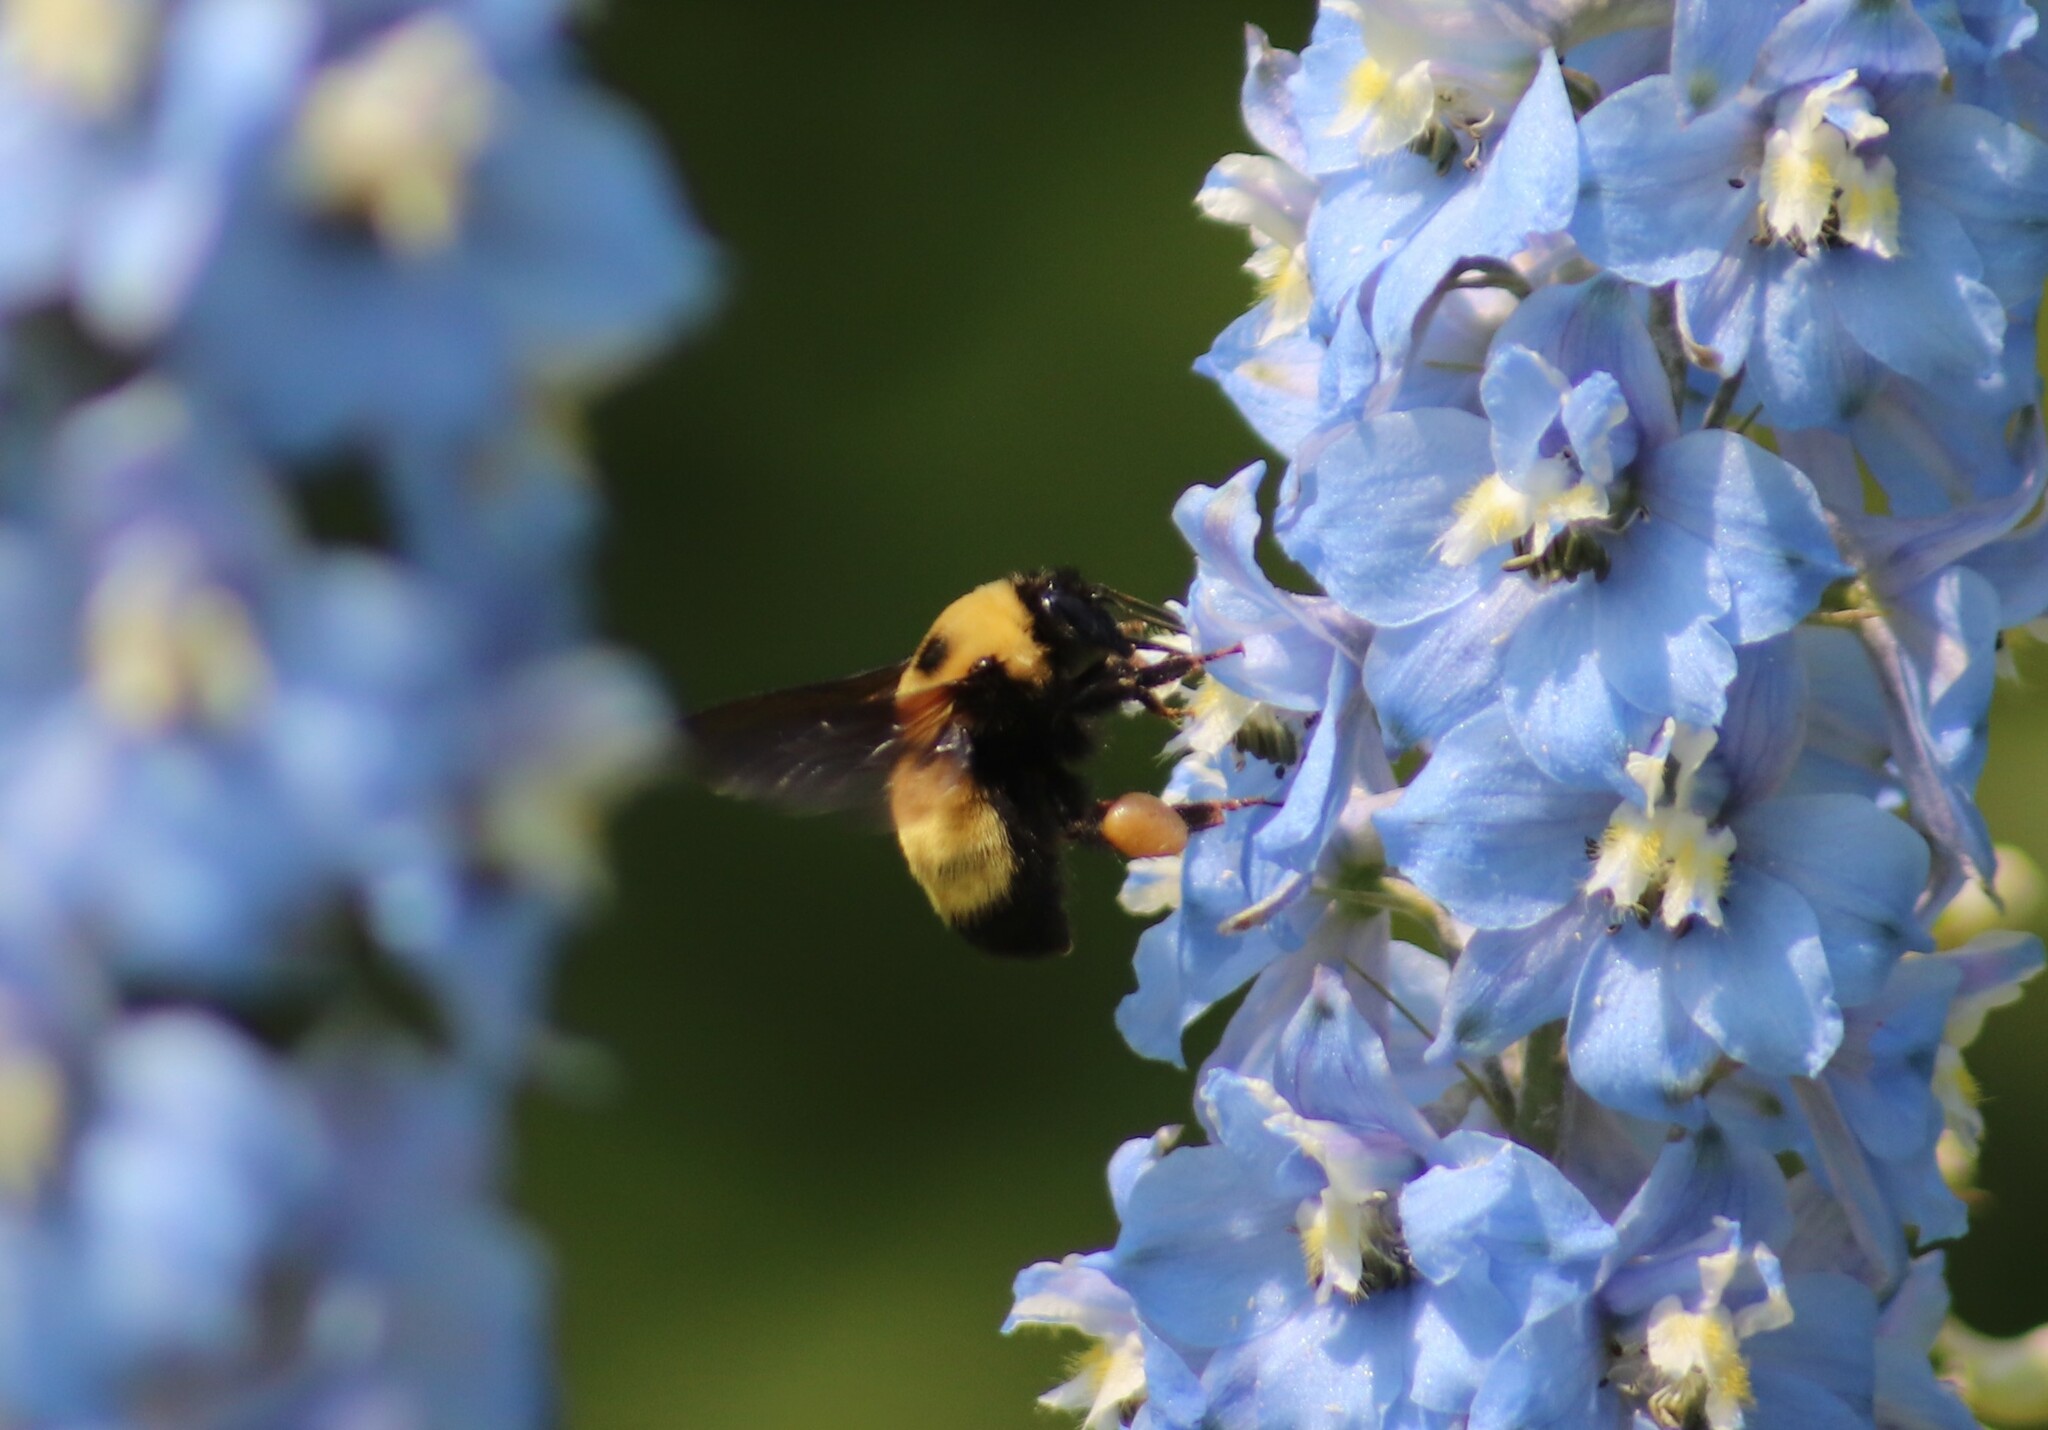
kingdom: Animalia
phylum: Arthropoda
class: Insecta
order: Hymenoptera
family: Apidae
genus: Bombus
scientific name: Bombus nevadensis
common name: Nevada bumble bee
